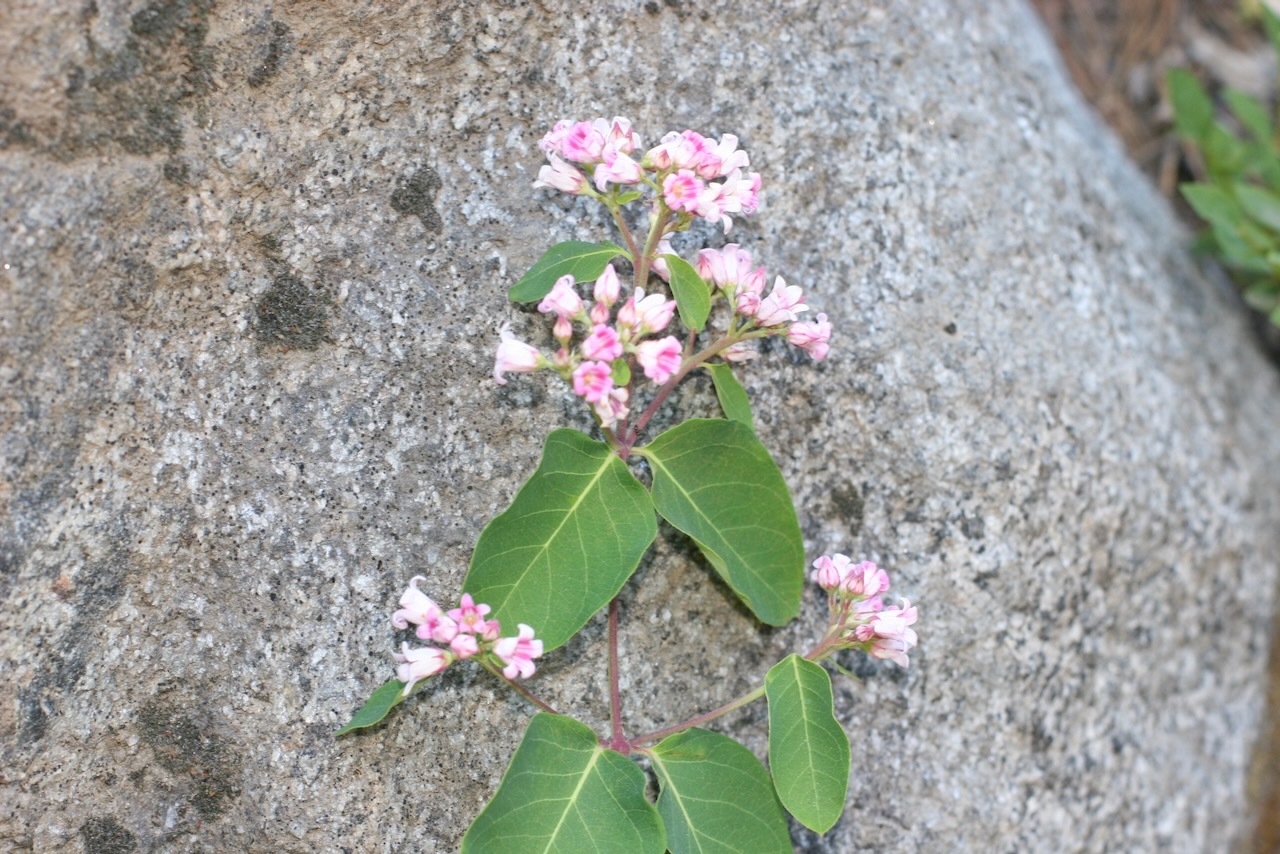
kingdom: Plantae
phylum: Tracheophyta
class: Magnoliopsida
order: Gentianales
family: Apocynaceae
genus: Apocynum
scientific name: Apocynum androsaemifolium
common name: Spreading dogbane
